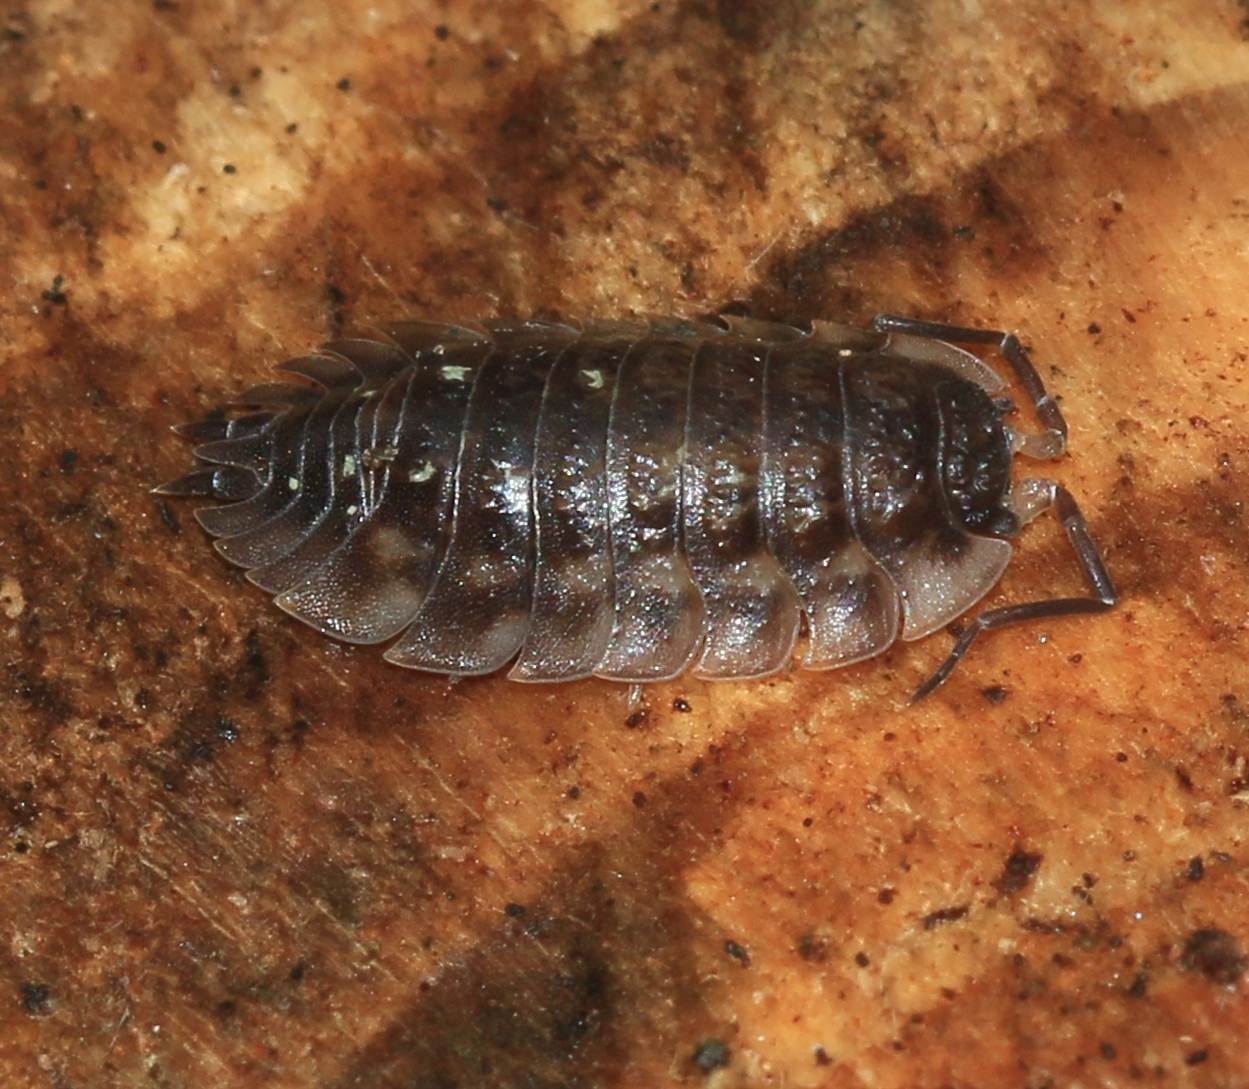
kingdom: Animalia
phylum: Arthropoda
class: Malacostraca
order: Isopoda
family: Oniscidae
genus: Oniscus
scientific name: Oniscus asellus
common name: Common shiny woodlouse
